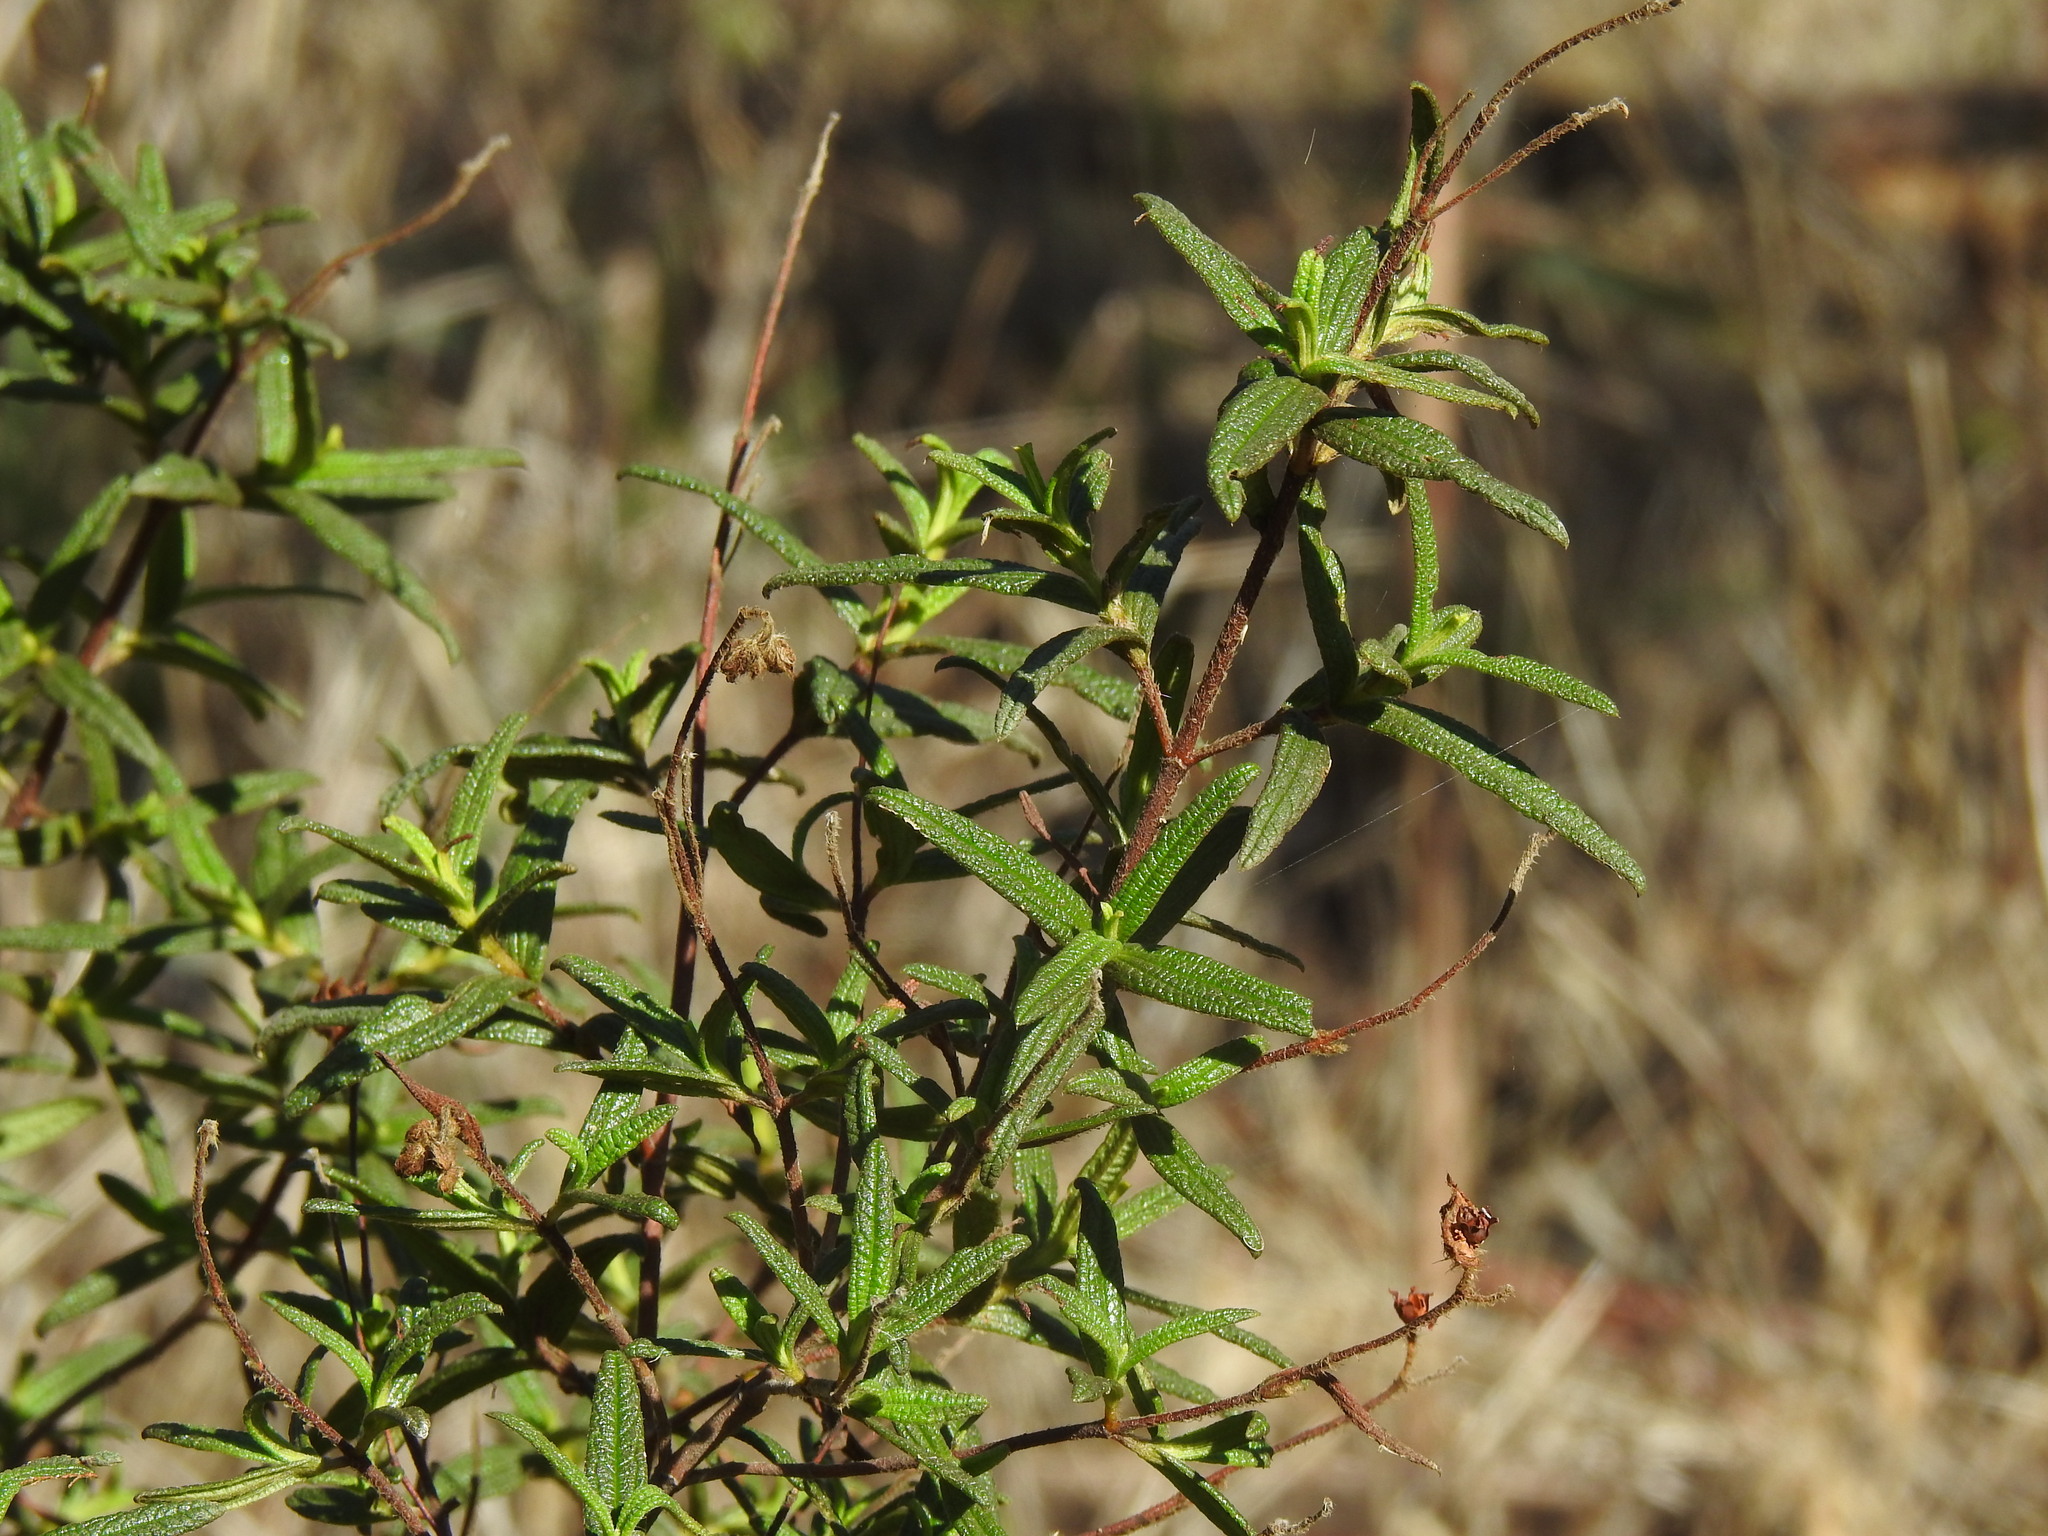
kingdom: Plantae
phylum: Tracheophyta
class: Magnoliopsida
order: Malvales
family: Cistaceae
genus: Cistus
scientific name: Cistus monspeliensis
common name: Montpelier cistus
